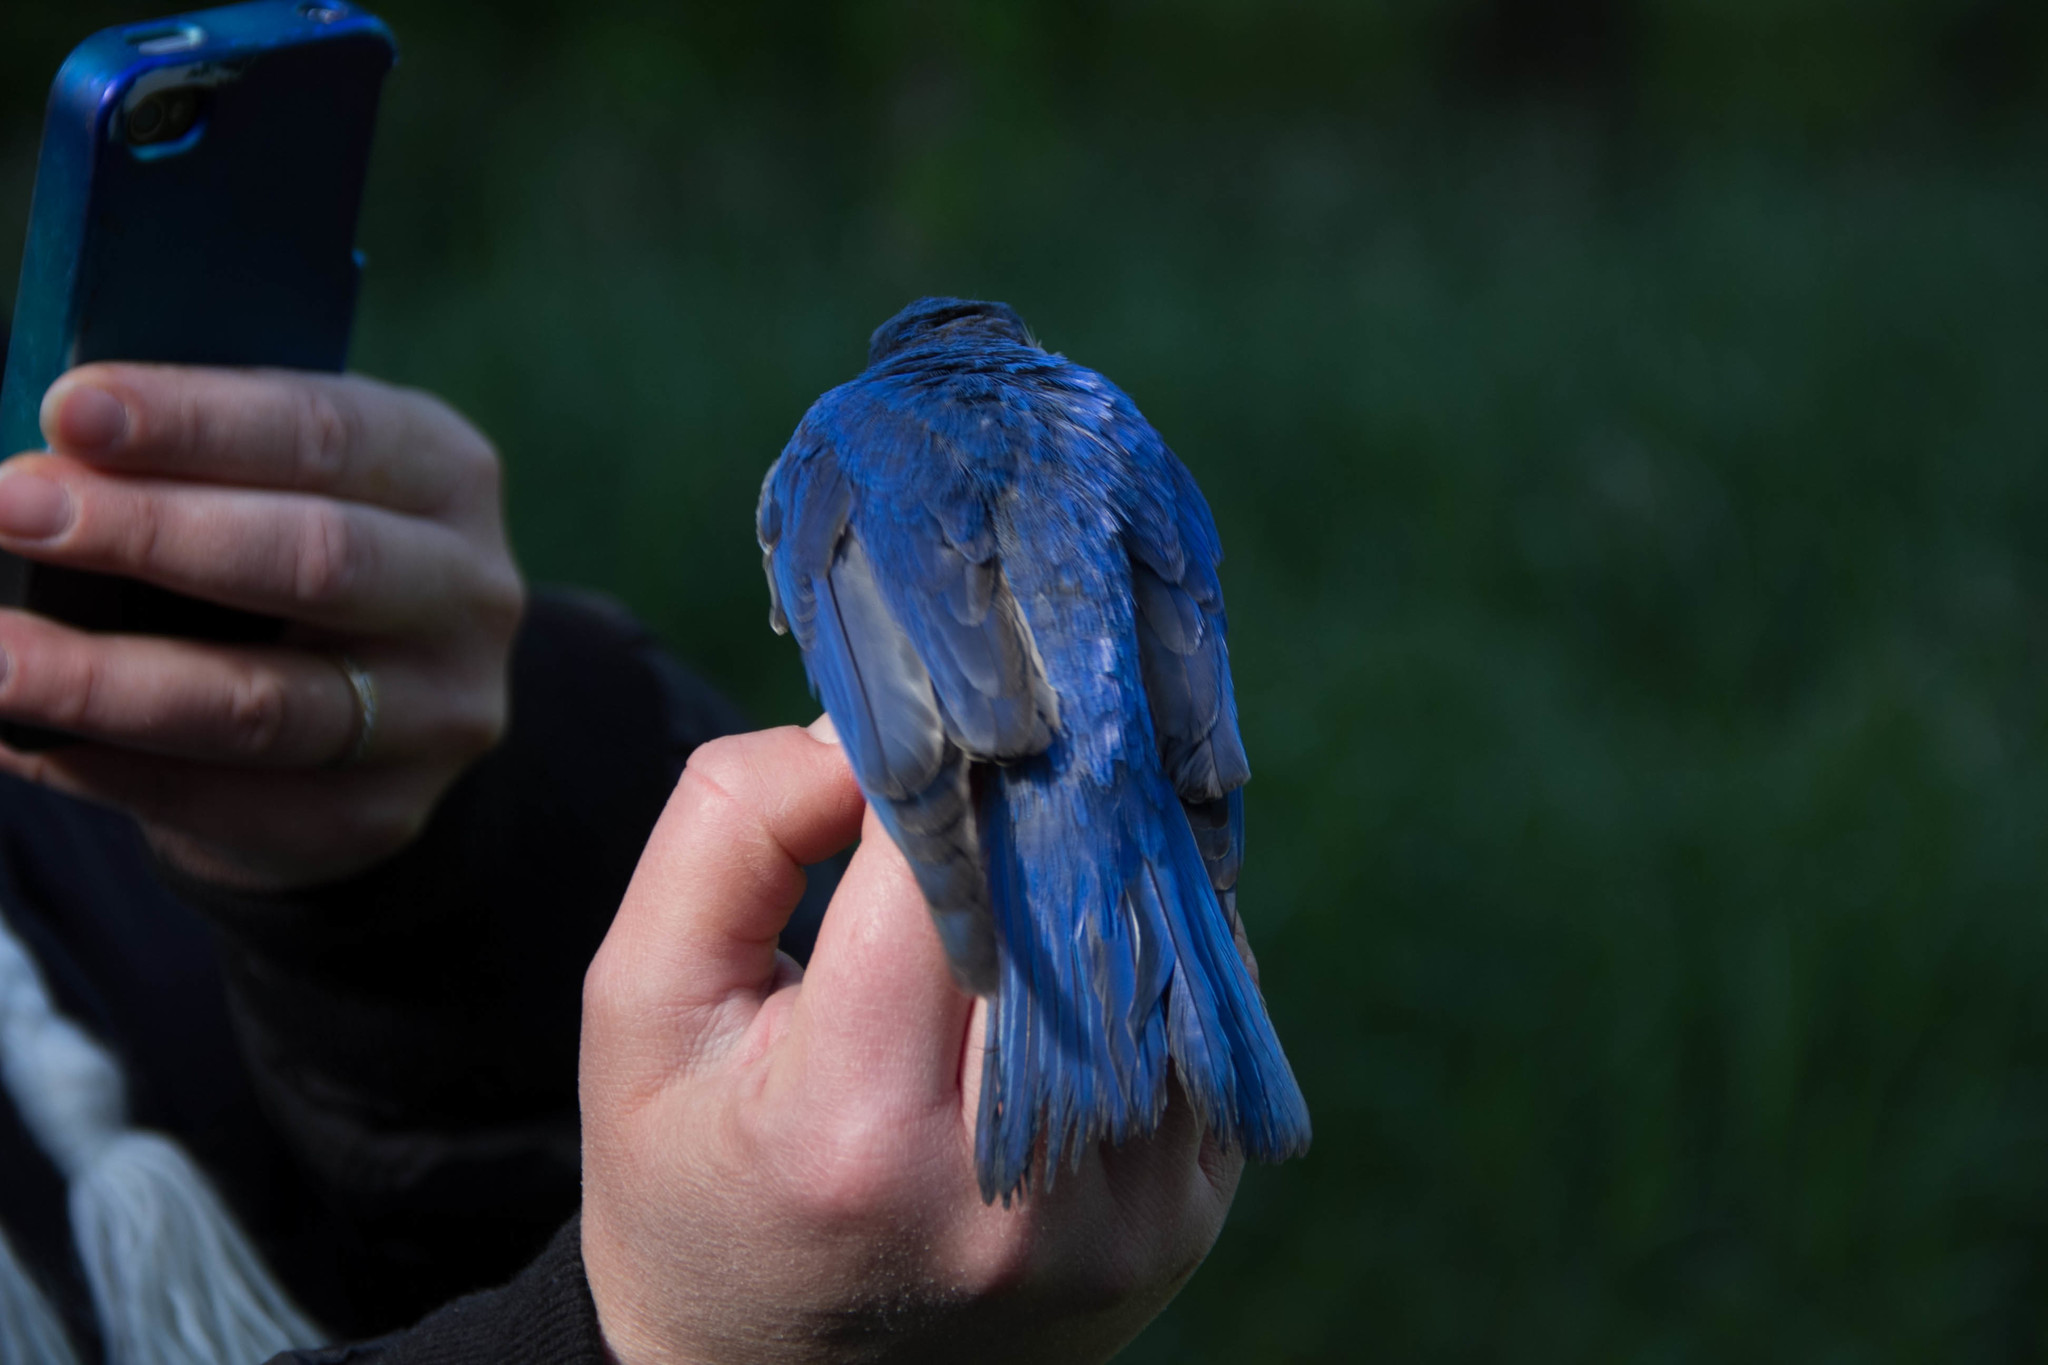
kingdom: Animalia
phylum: Chordata
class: Aves
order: Passeriformes
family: Turdidae
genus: Sialia
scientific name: Sialia sialis
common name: Eastern bluebird
